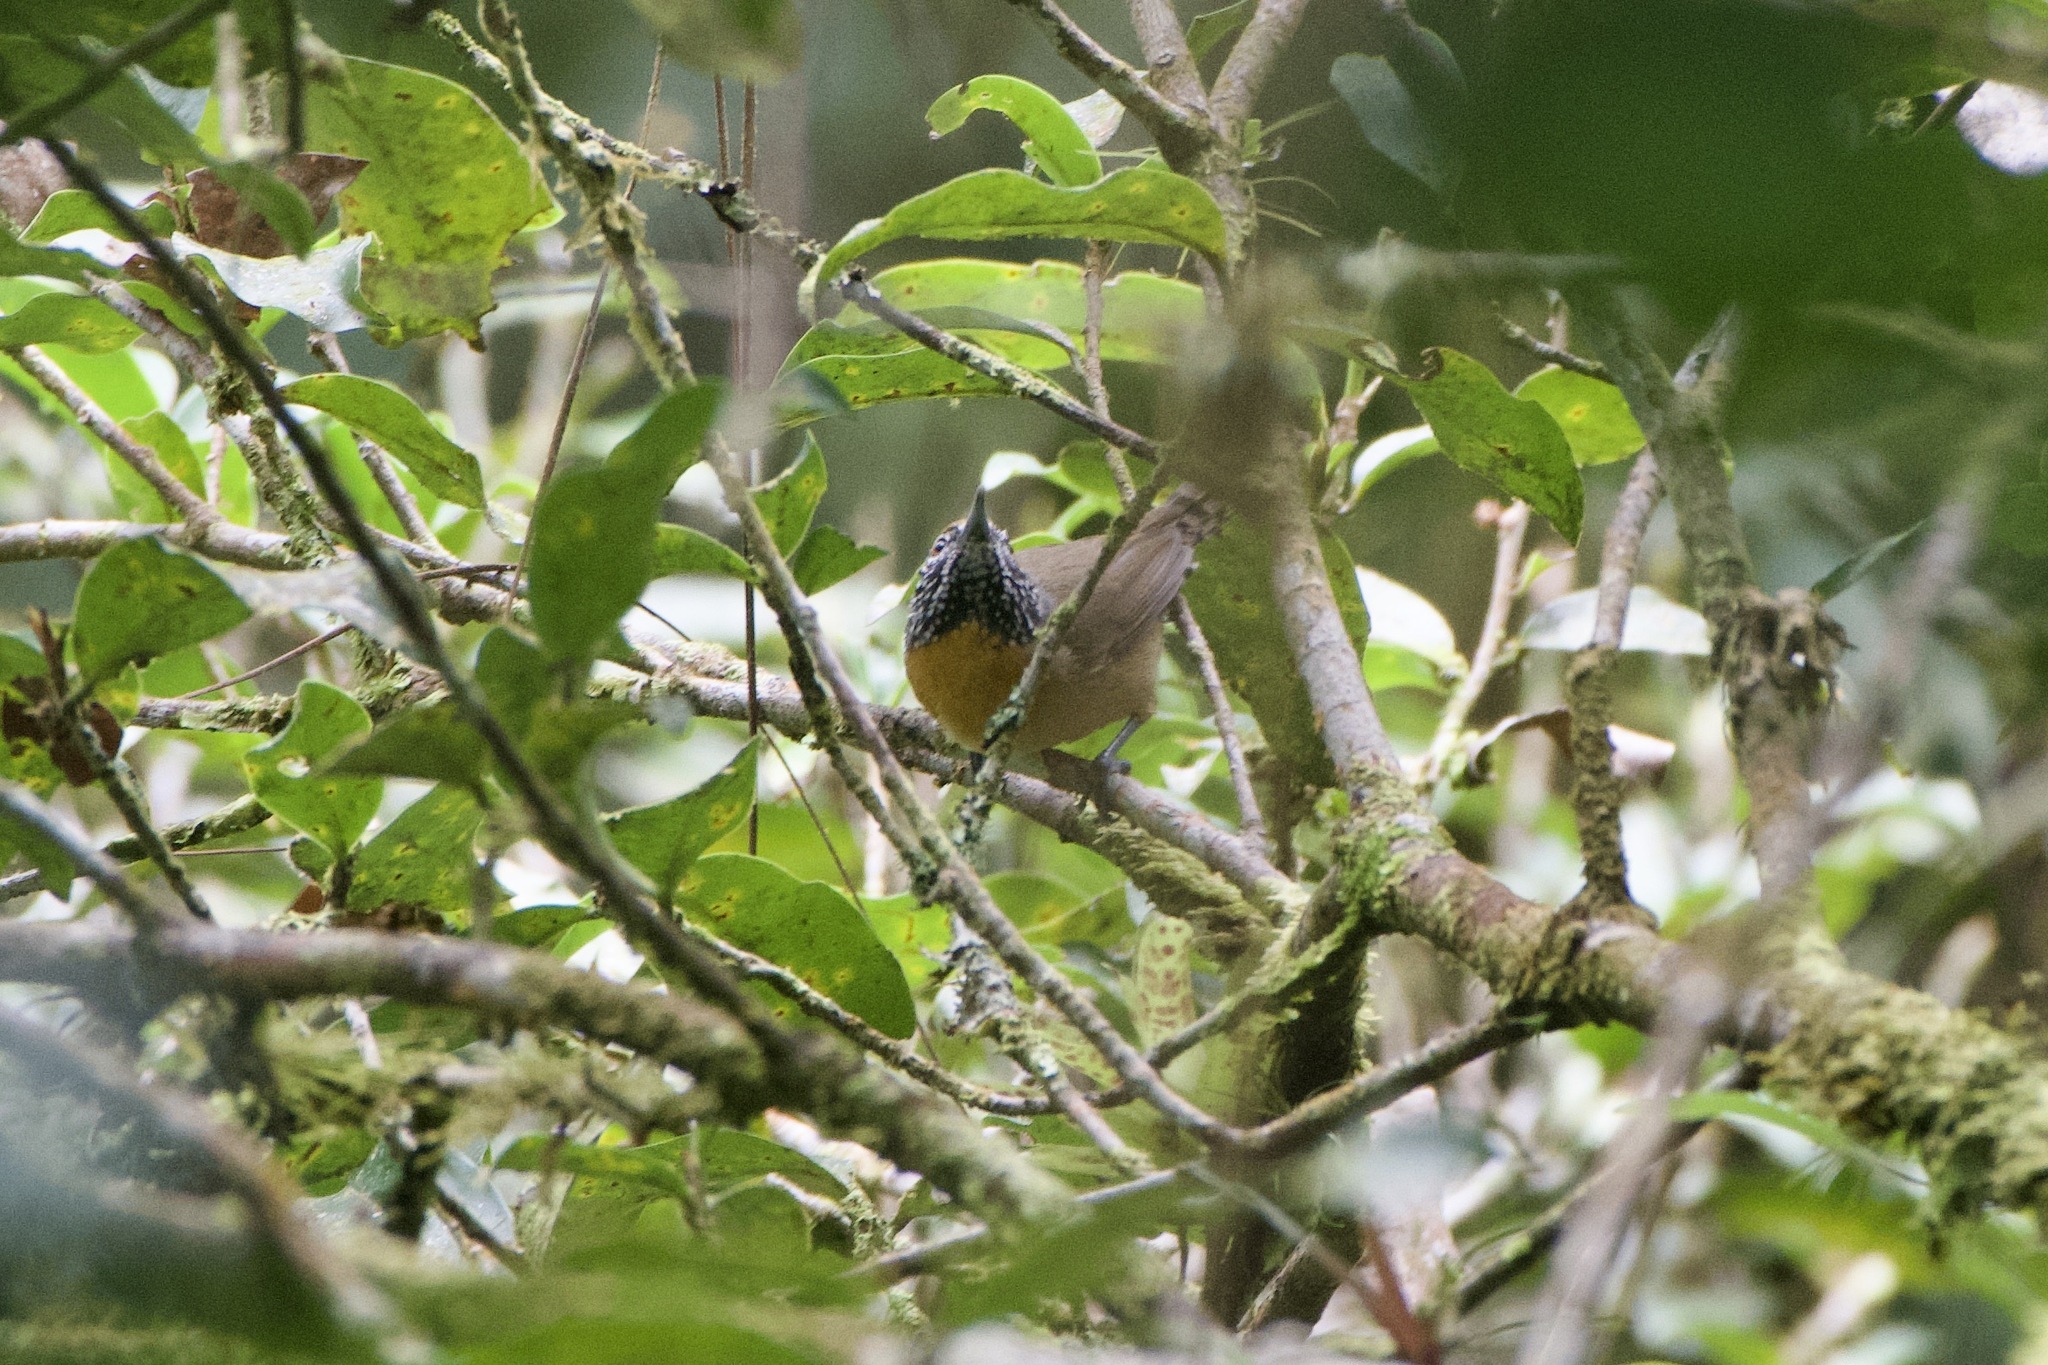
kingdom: Animalia
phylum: Chordata
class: Aves
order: Passeriformes
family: Troglodytidae
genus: Pheugopedius
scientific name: Pheugopedius rutilus
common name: Rufous-breasted wren
